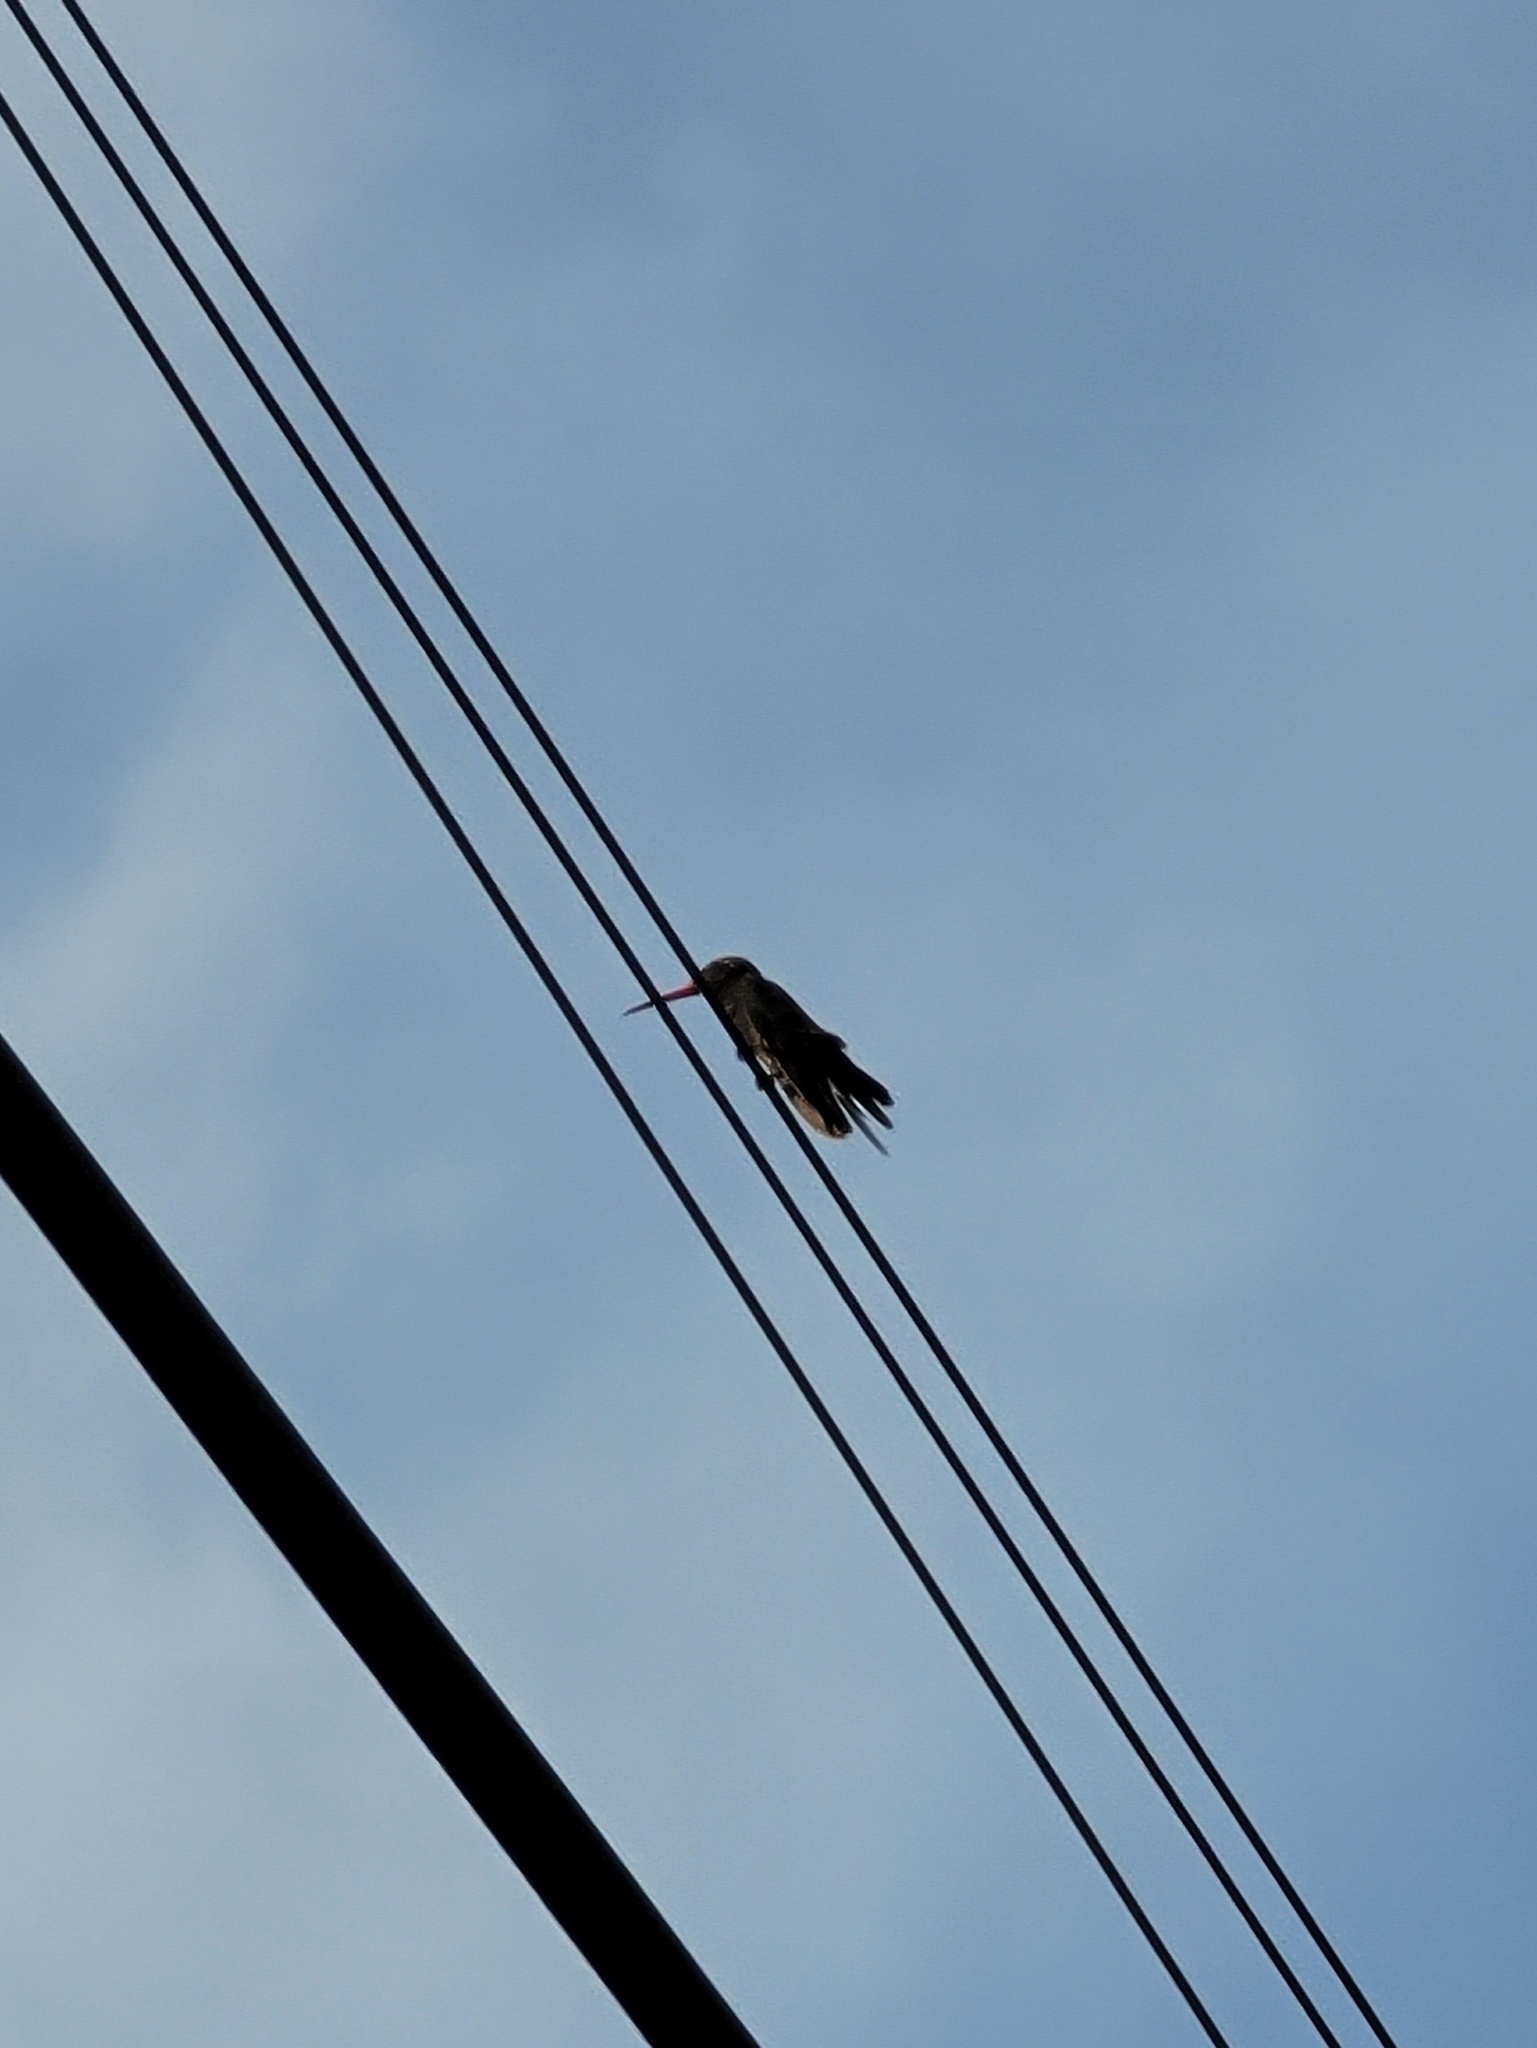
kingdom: Animalia
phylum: Chordata
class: Aves
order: Apodiformes
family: Trochilidae
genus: Cynanthus
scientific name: Cynanthus latirostris
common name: Broad-billed hummingbird
